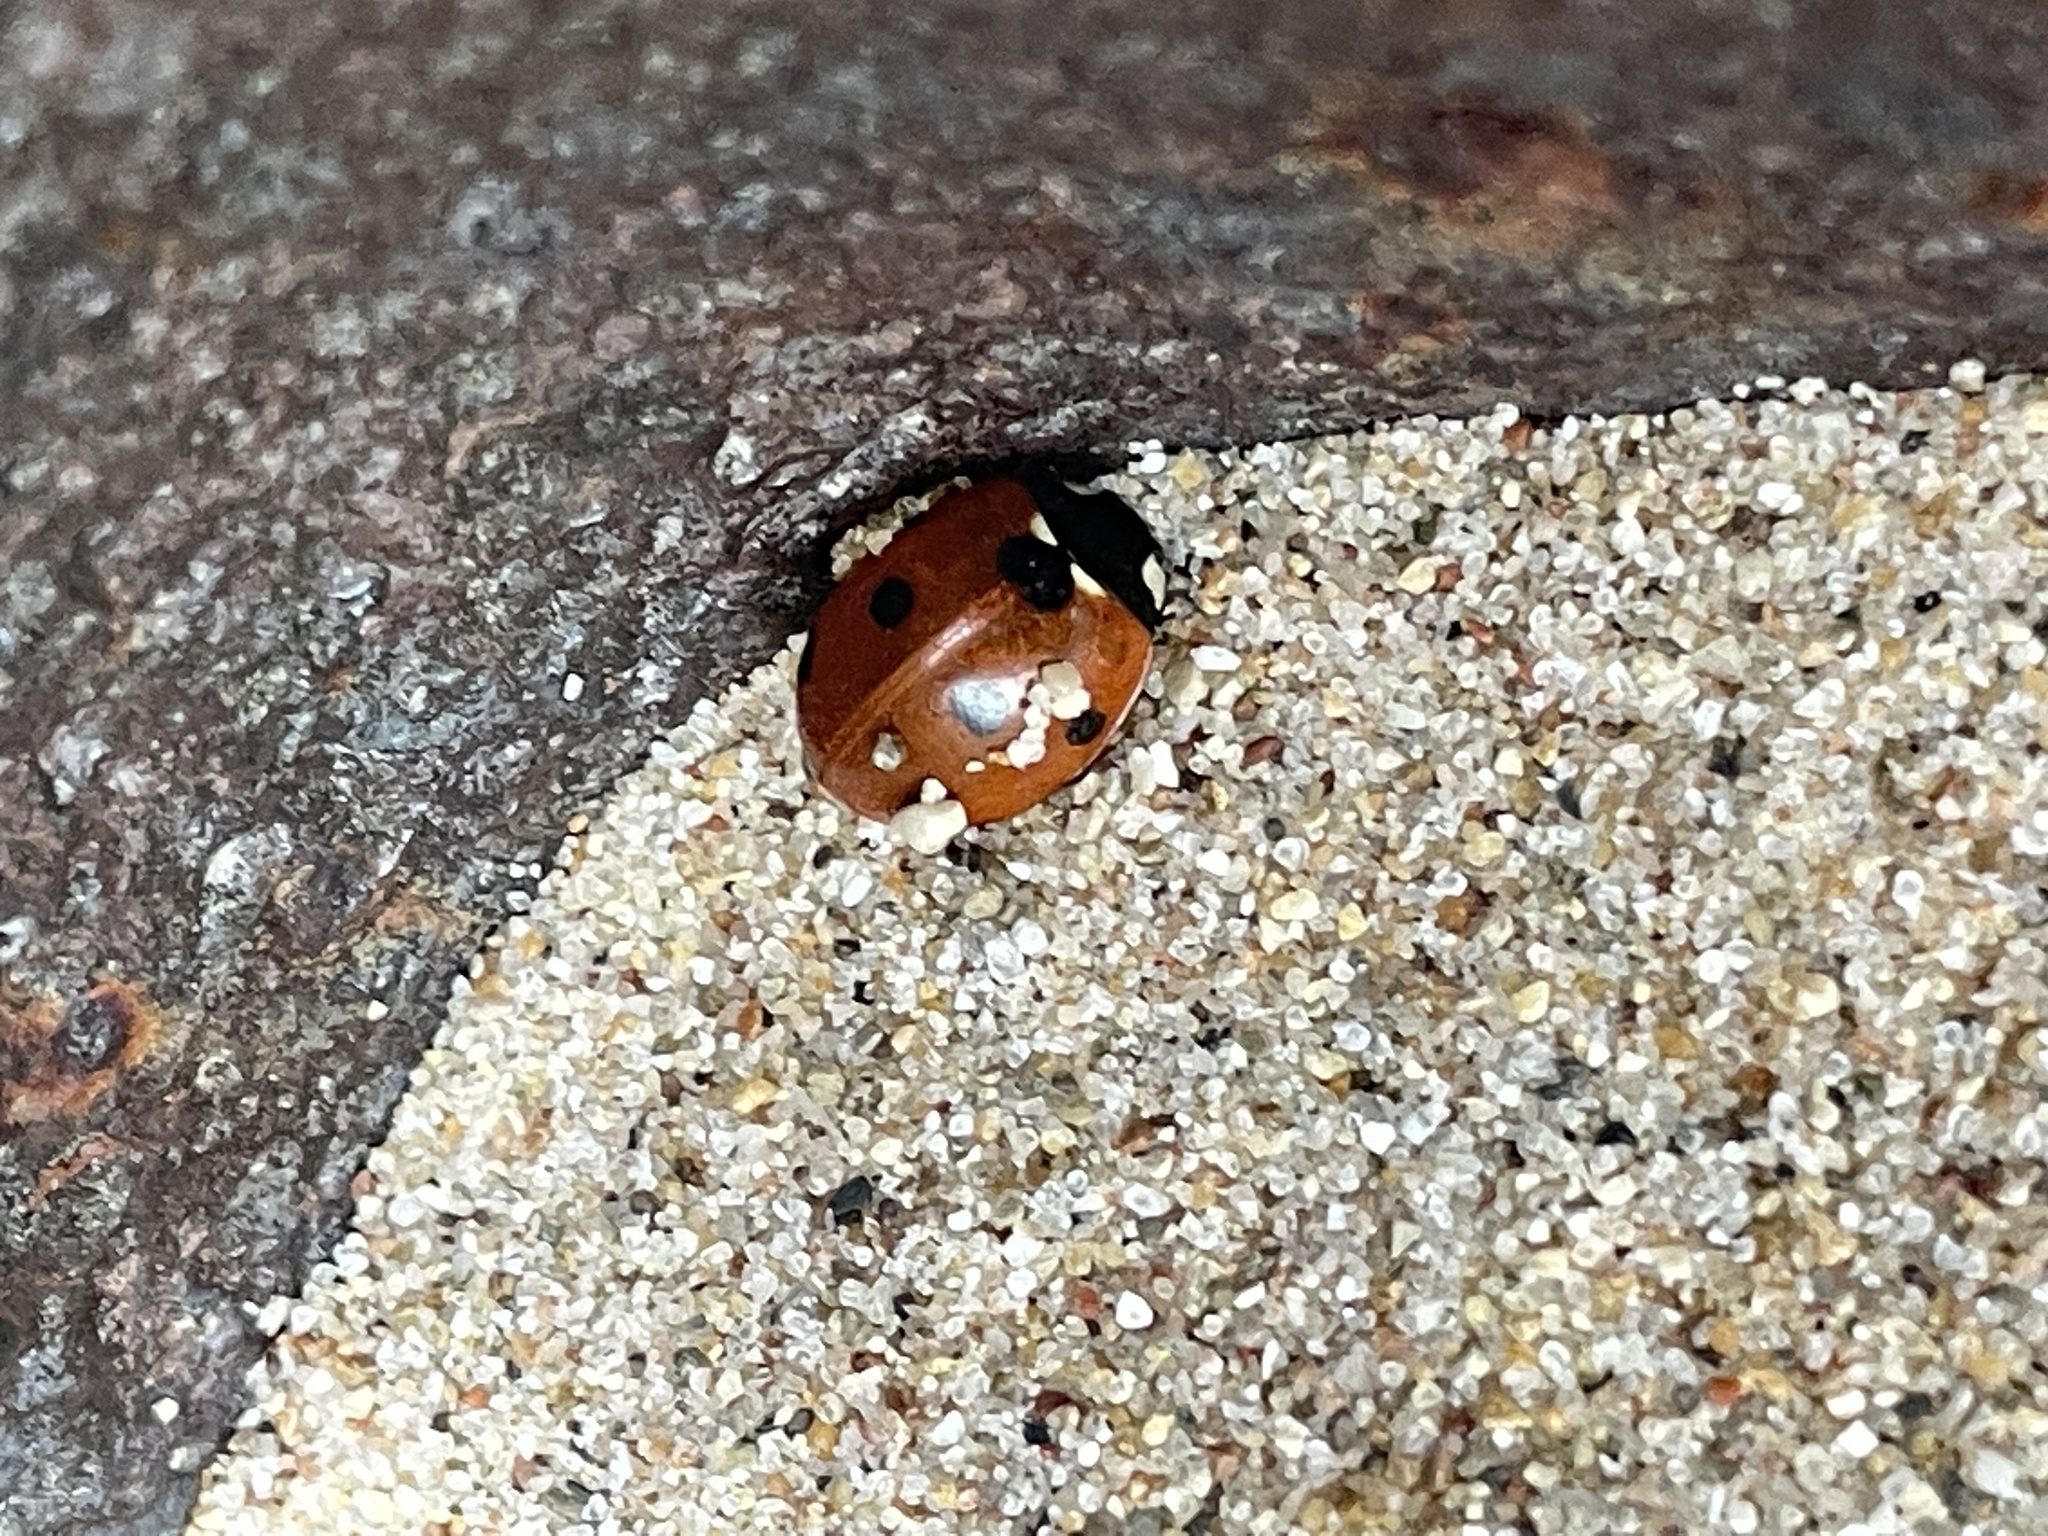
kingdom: Animalia
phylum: Arthropoda
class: Insecta
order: Coleoptera
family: Coccinellidae
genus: Coccinella
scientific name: Coccinella septempunctata
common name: Sevenspotted lady beetle
